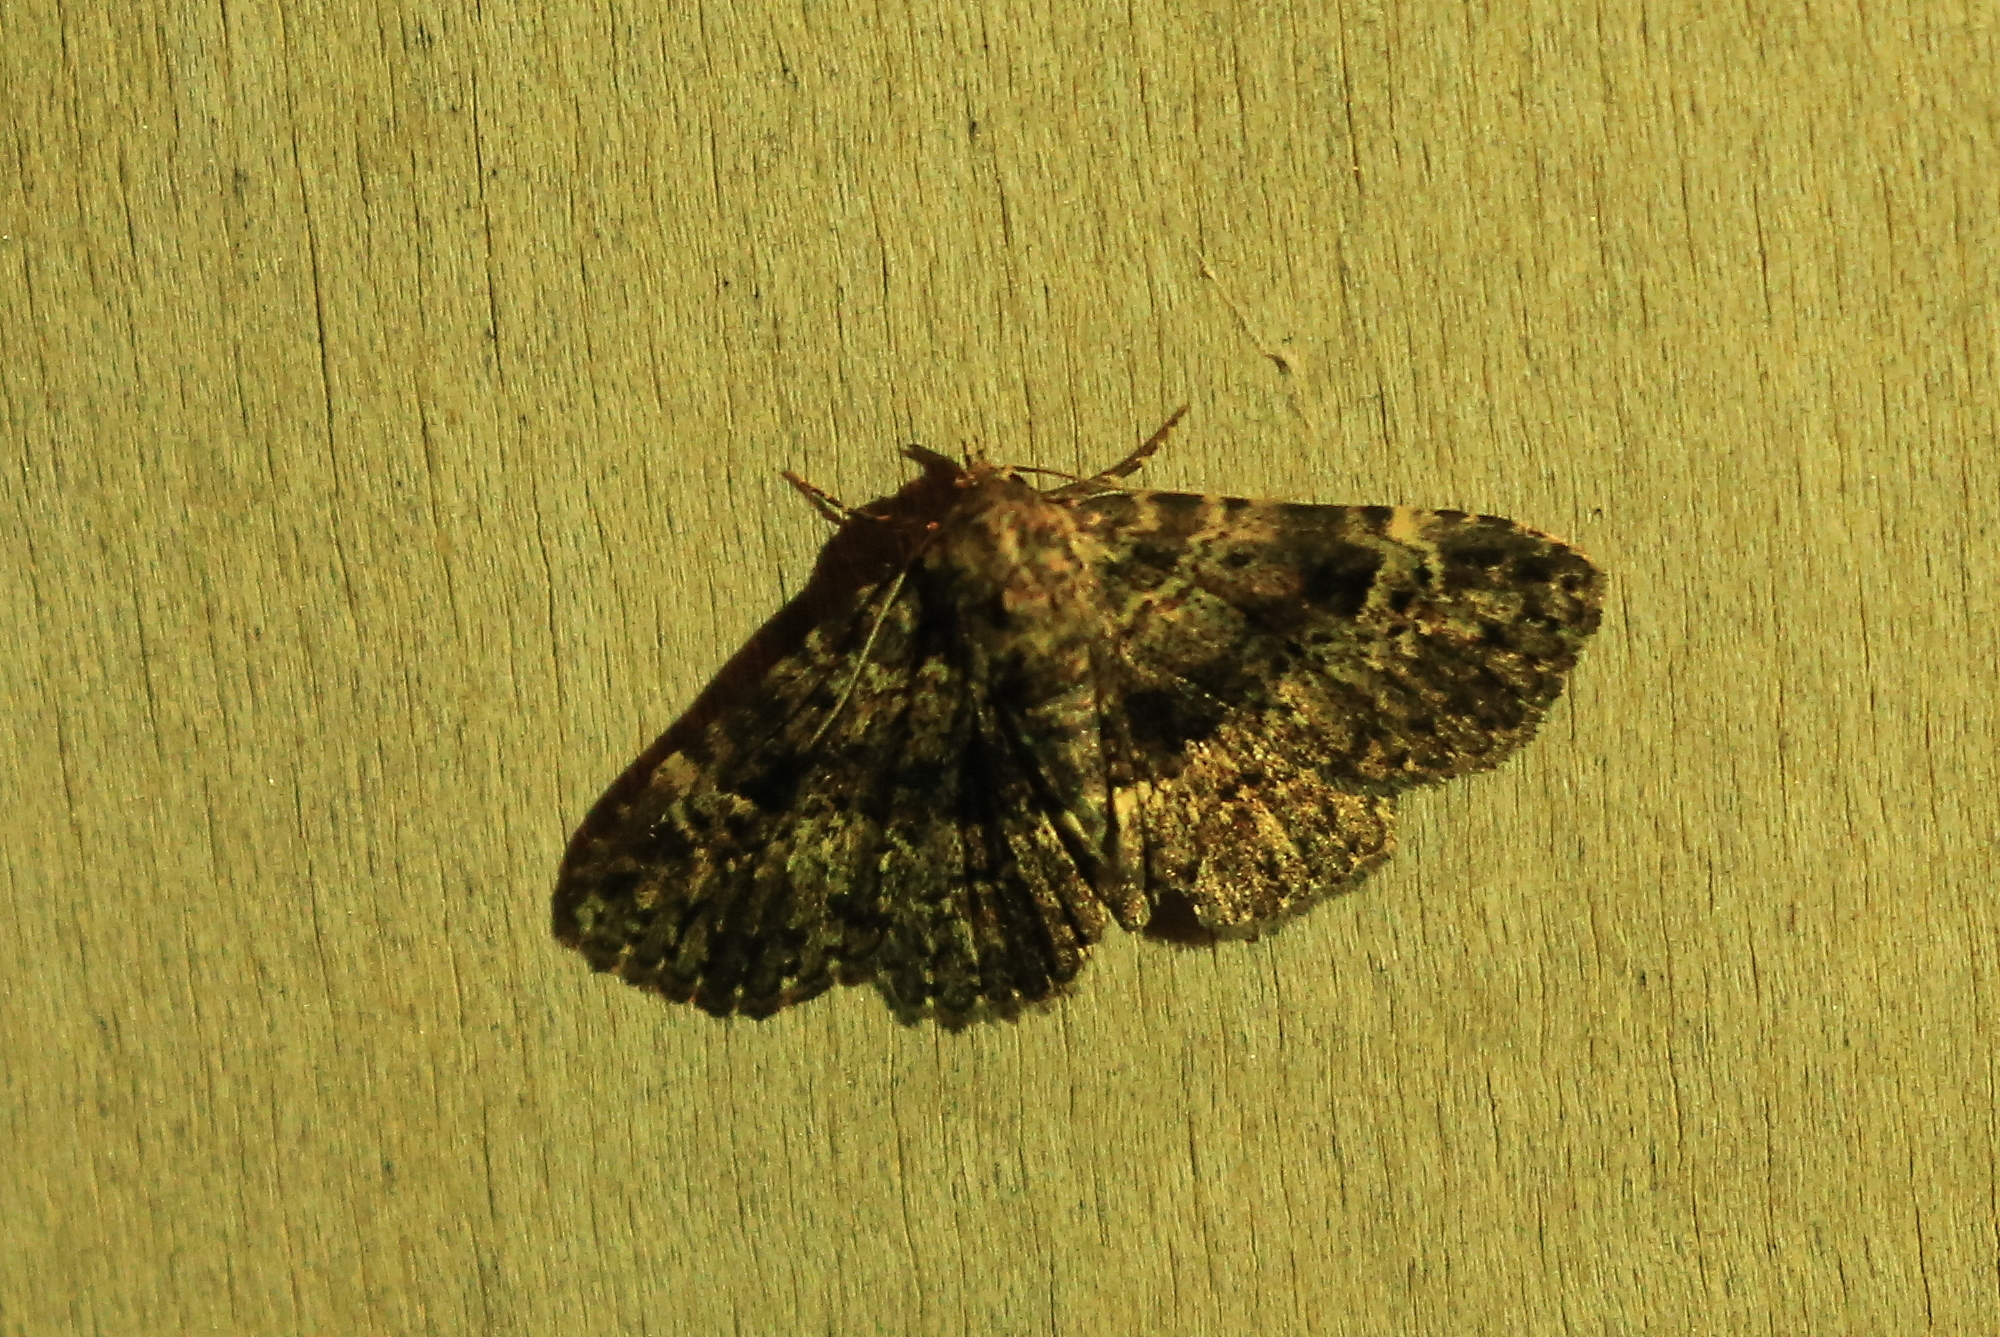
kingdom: Animalia
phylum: Arthropoda
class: Insecta
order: Lepidoptera
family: Erebidae
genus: Metalectra
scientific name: Metalectra discalis
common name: Common fungus moth
